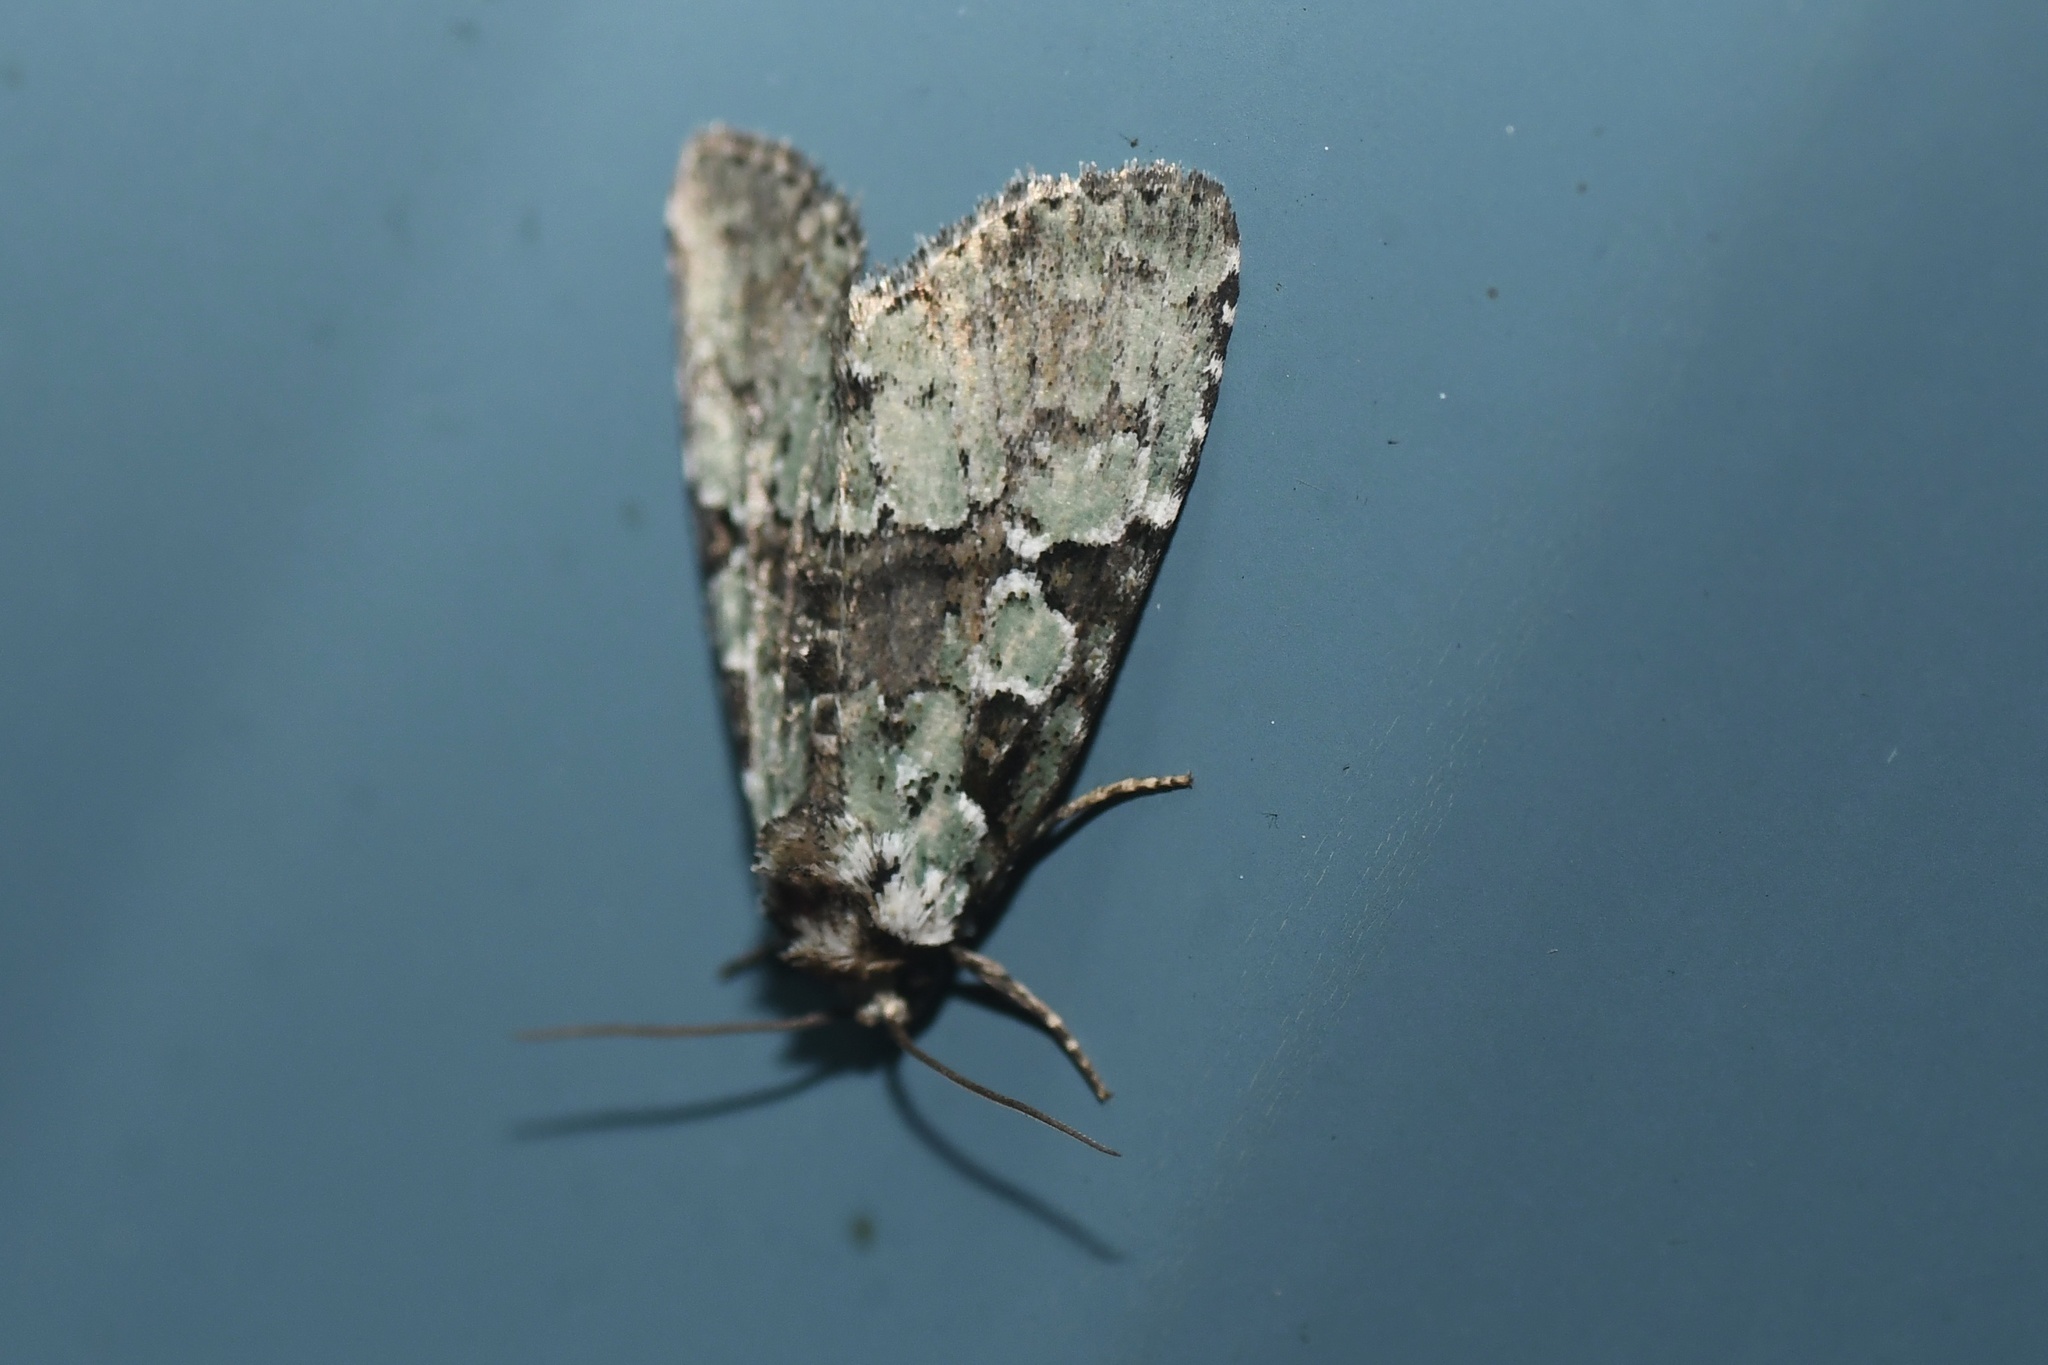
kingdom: Animalia
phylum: Arthropoda
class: Insecta
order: Lepidoptera
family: Noctuidae
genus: Leuconycta
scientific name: Leuconycta lepidula
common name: Marbled-green leuconycta moth
